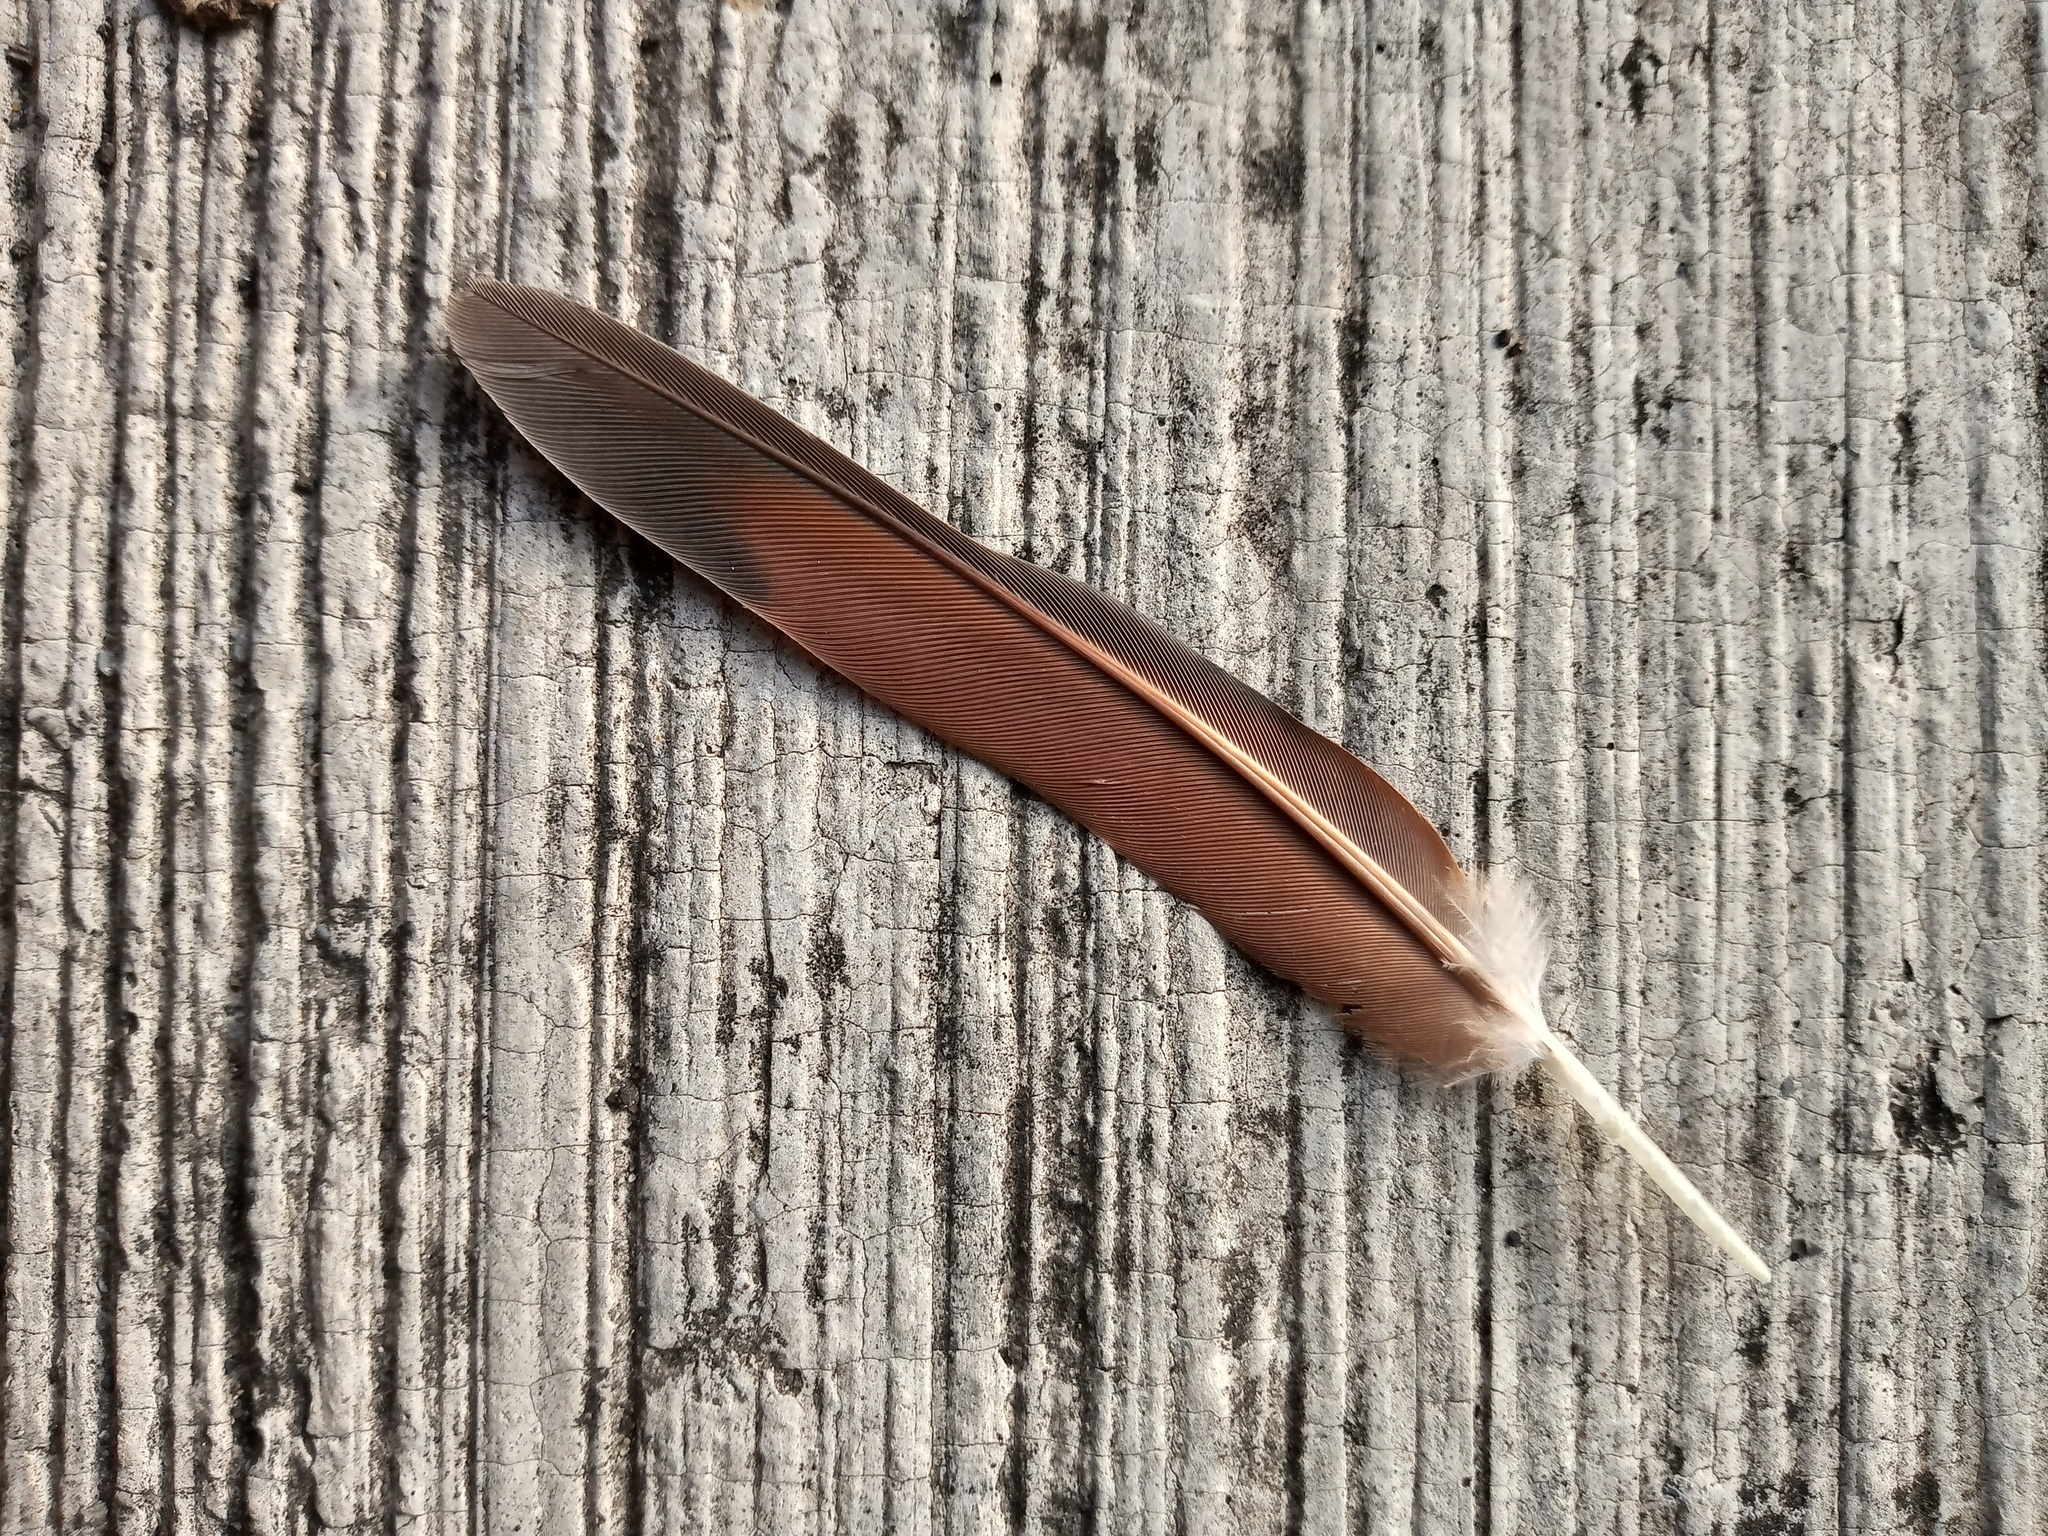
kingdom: Animalia
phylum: Chordata
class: Aves
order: Columbiformes
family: Columbidae
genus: Columbina
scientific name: Columbina inca
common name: Inca dove
